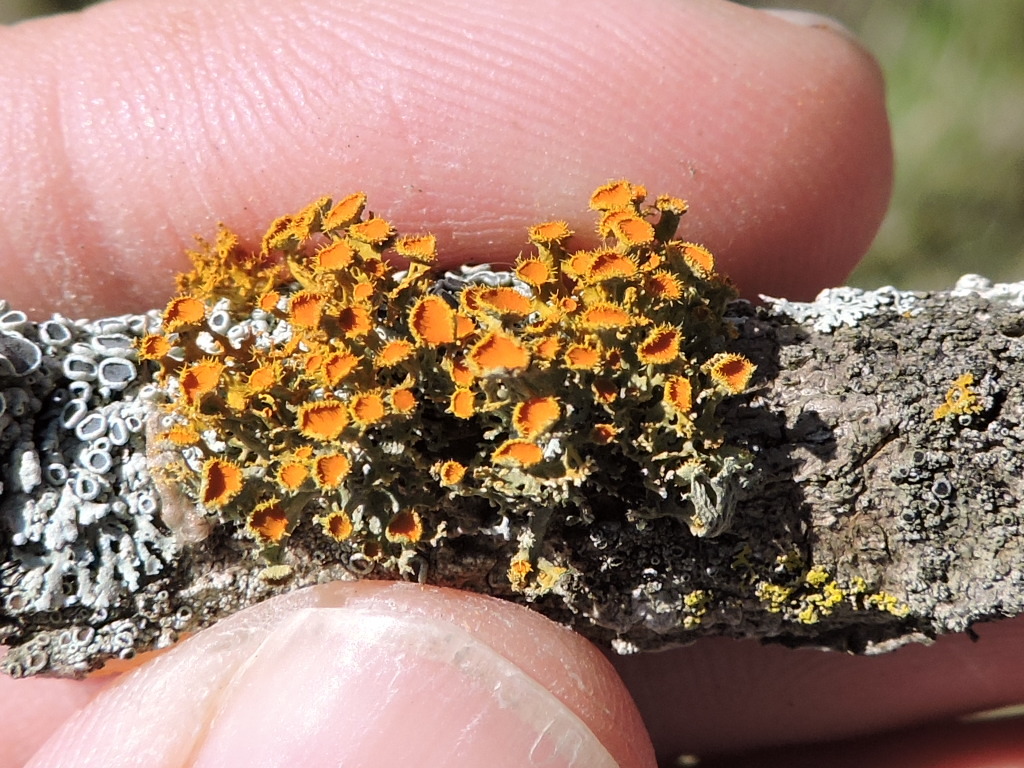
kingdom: Fungi
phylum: Ascomycota
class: Lecanoromycetes
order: Teloschistales
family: Teloschistaceae
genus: Niorma
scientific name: Niorma chrysophthalma
